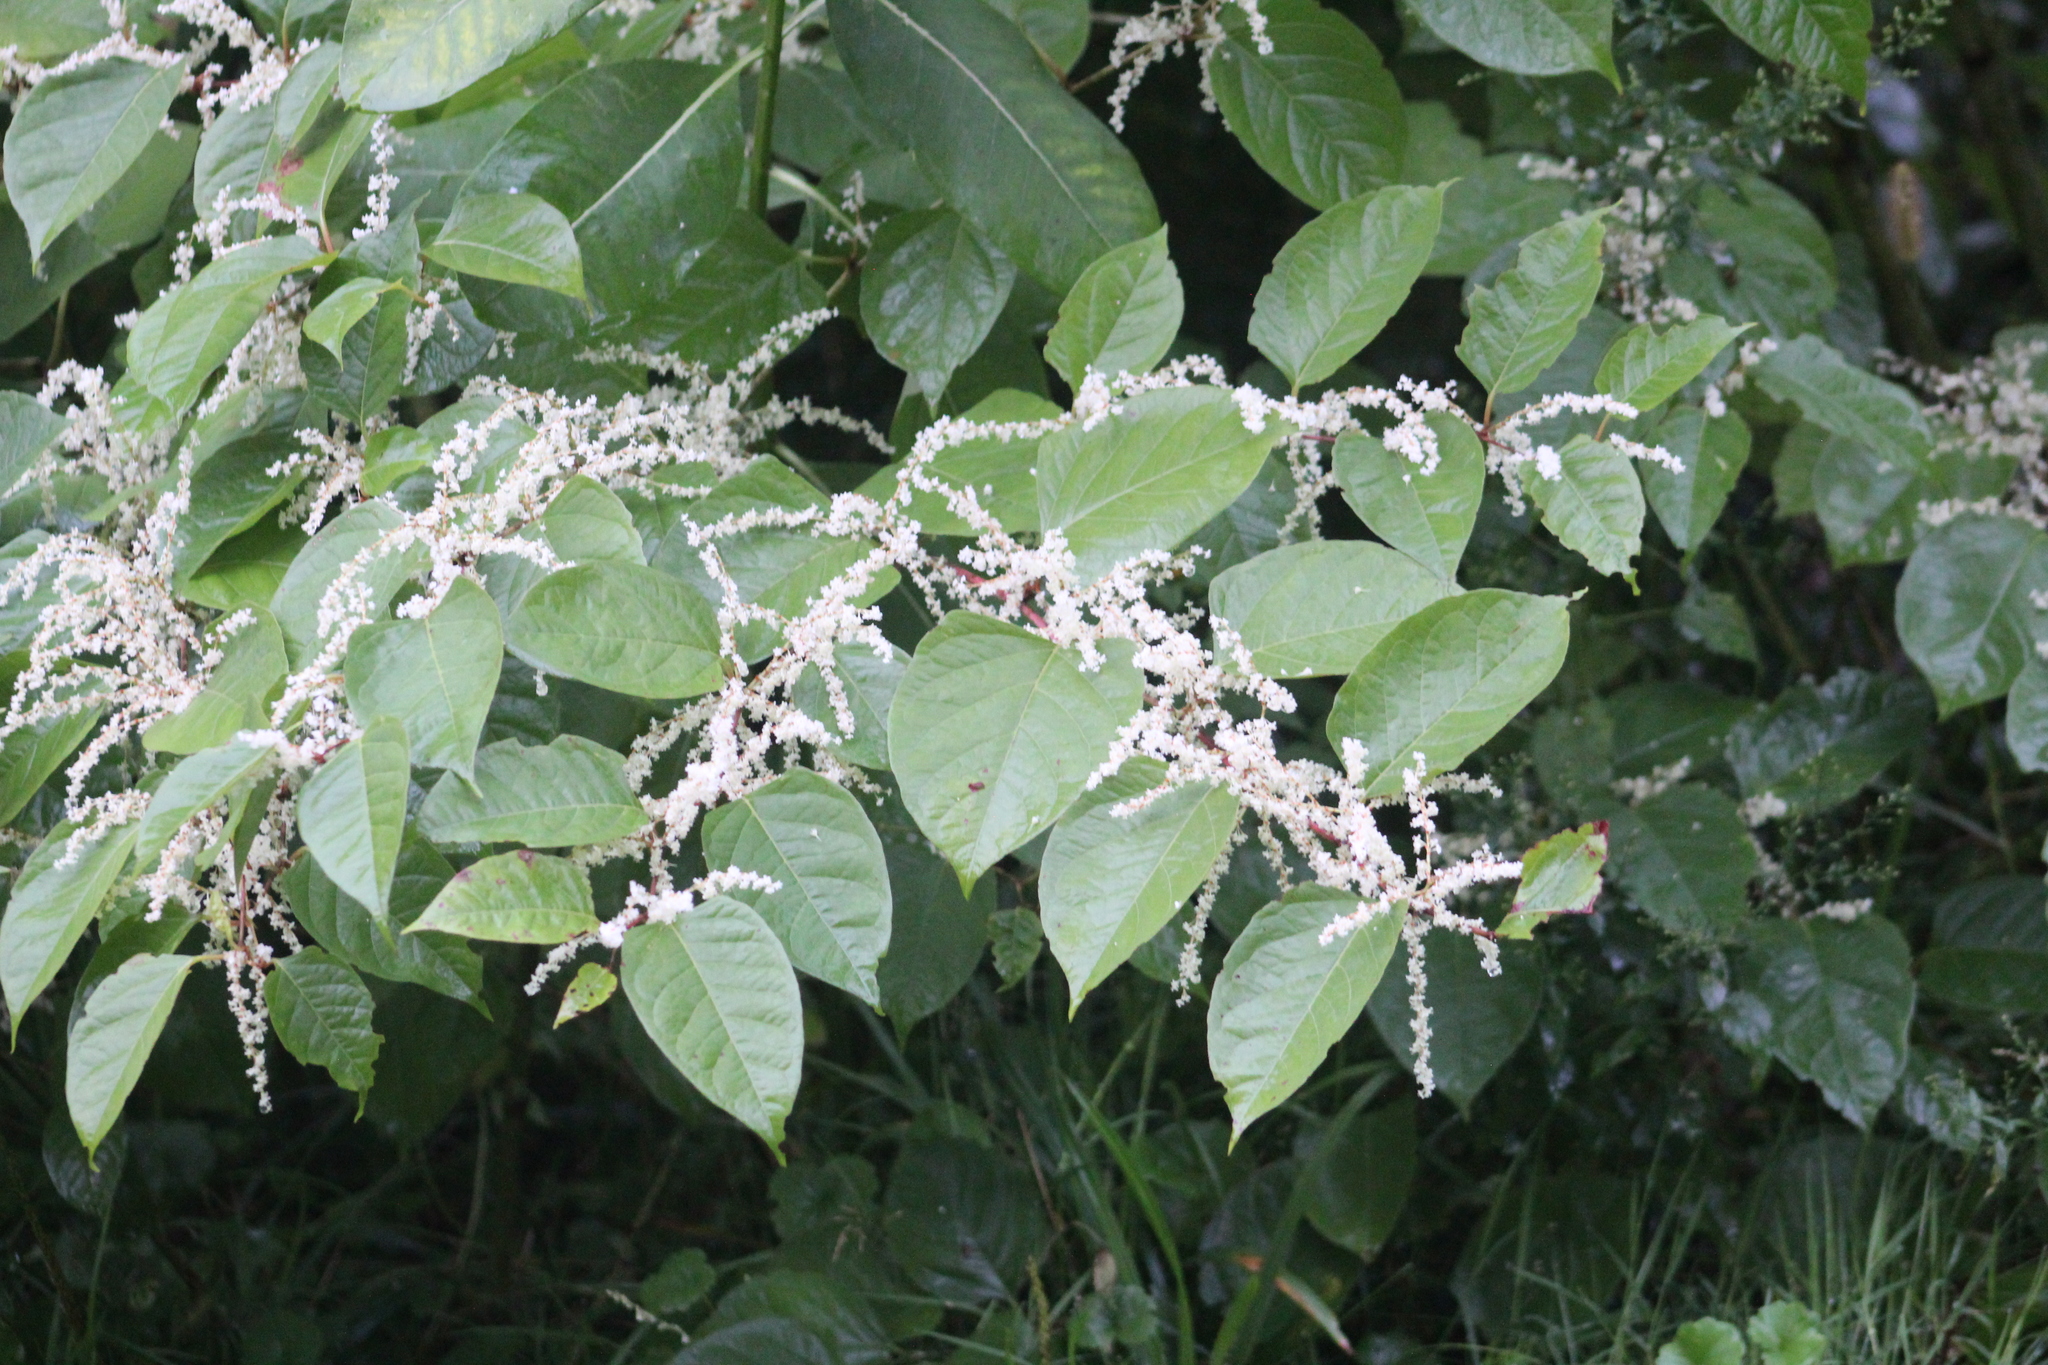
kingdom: Plantae
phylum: Tracheophyta
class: Magnoliopsida
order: Caryophyllales
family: Polygonaceae
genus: Reynoutria
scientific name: Reynoutria japonica
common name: Japanese knotweed
